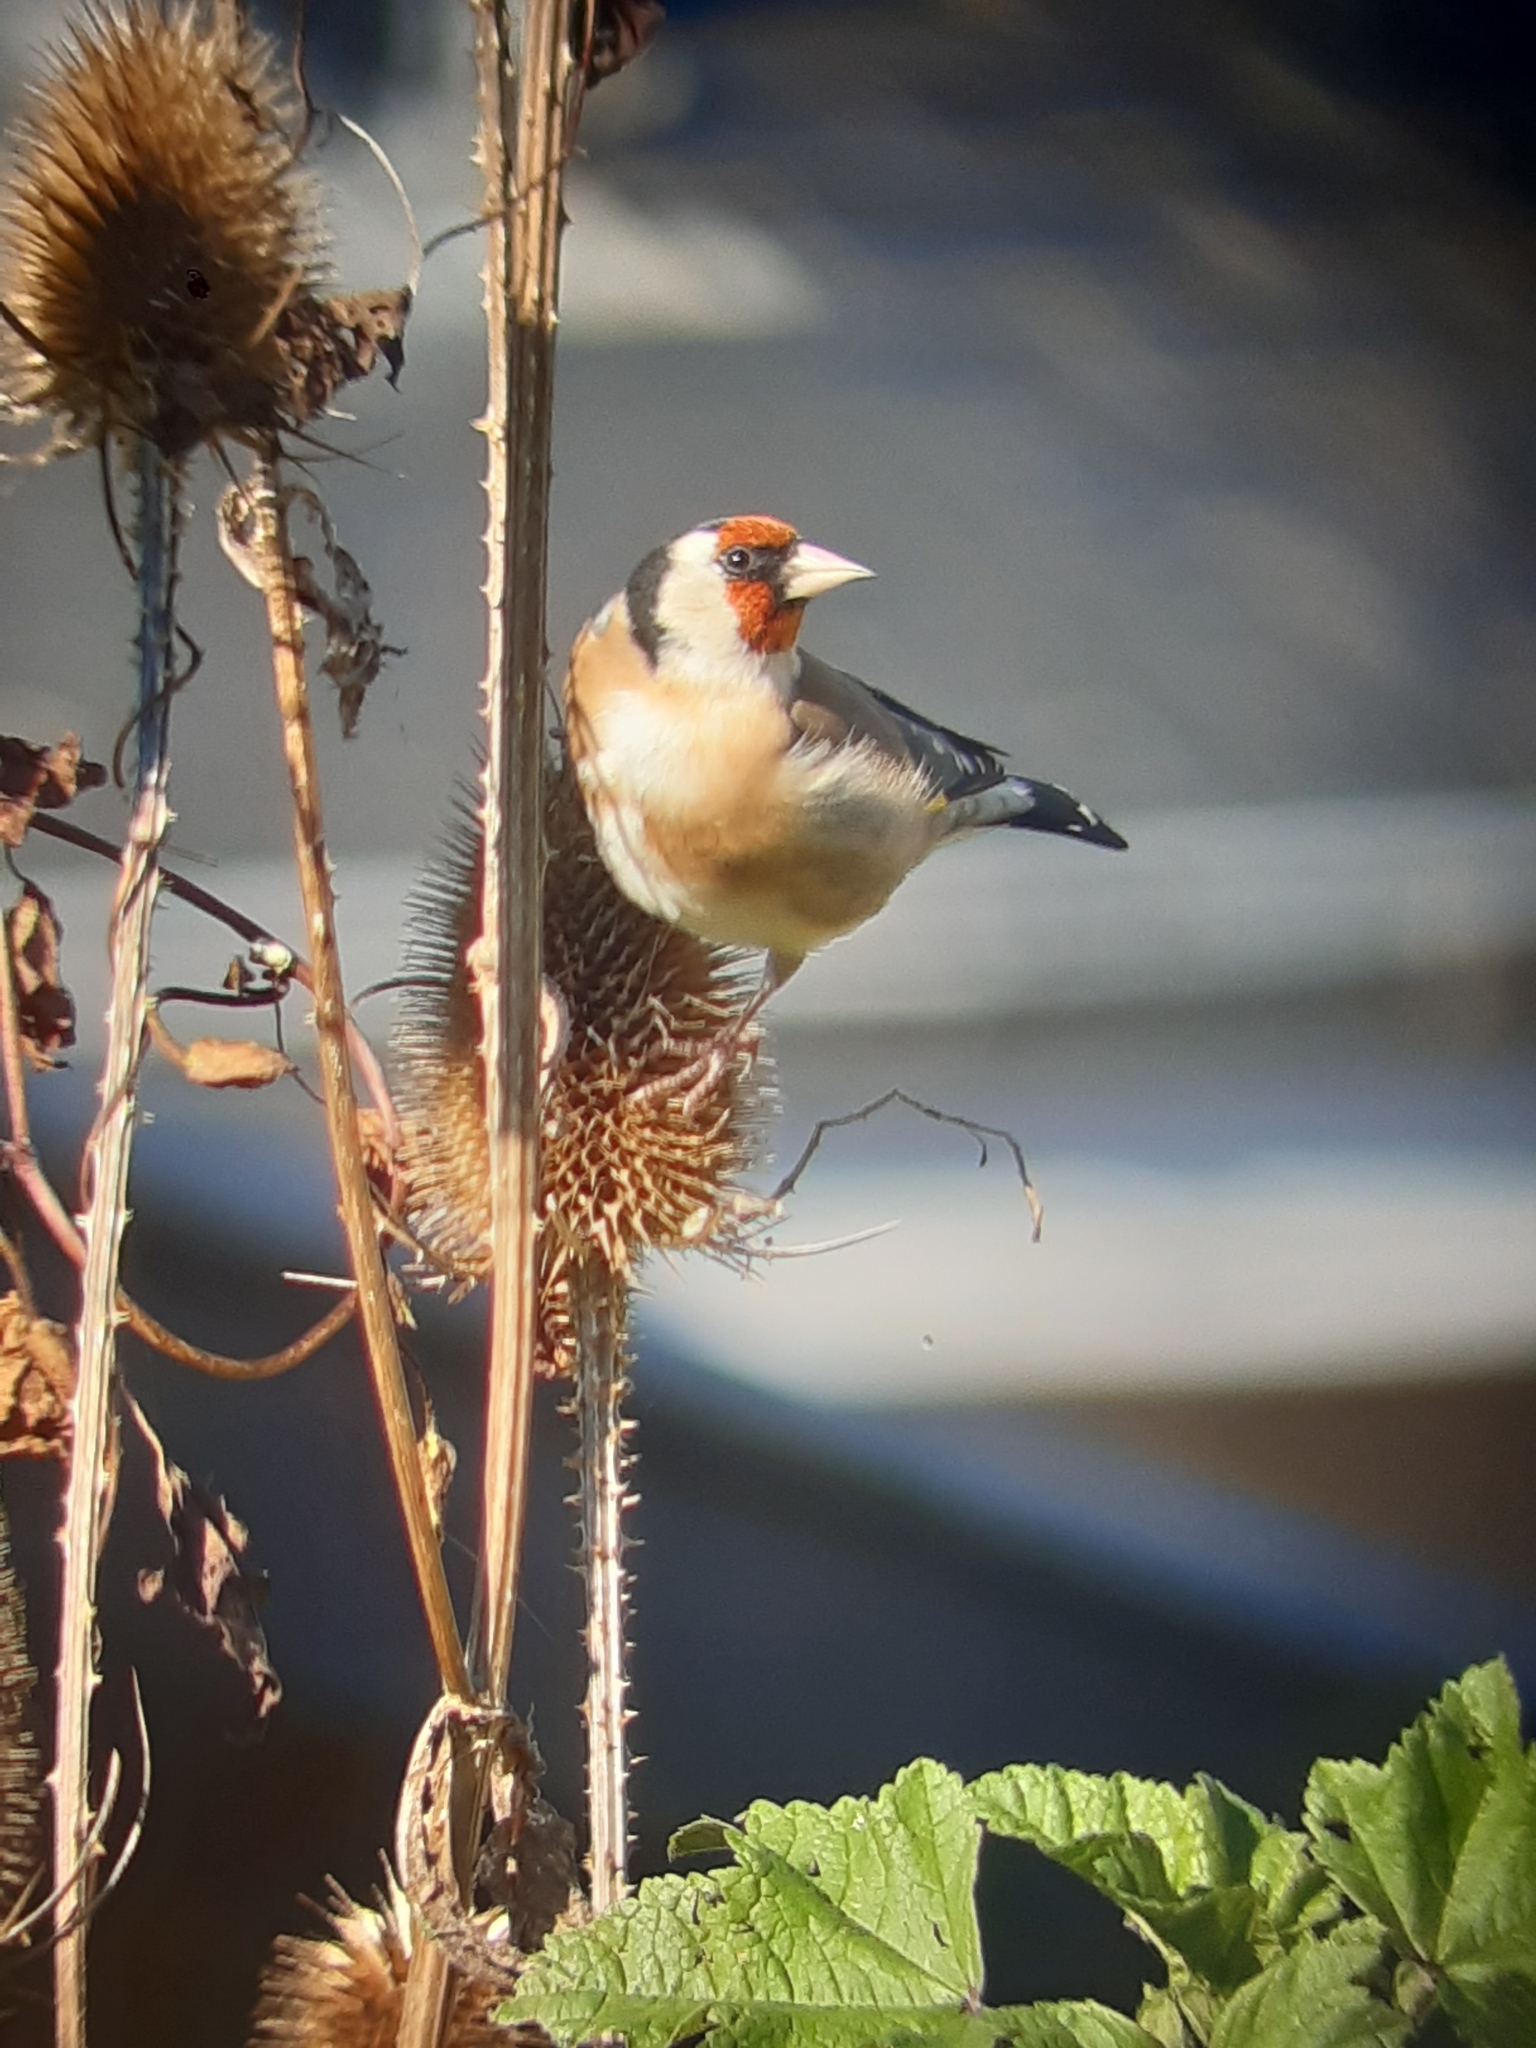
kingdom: Animalia
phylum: Chordata
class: Aves
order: Passeriformes
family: Fringillidae
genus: Carduelis
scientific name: Carduelis carduelis
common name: European goldfinch
